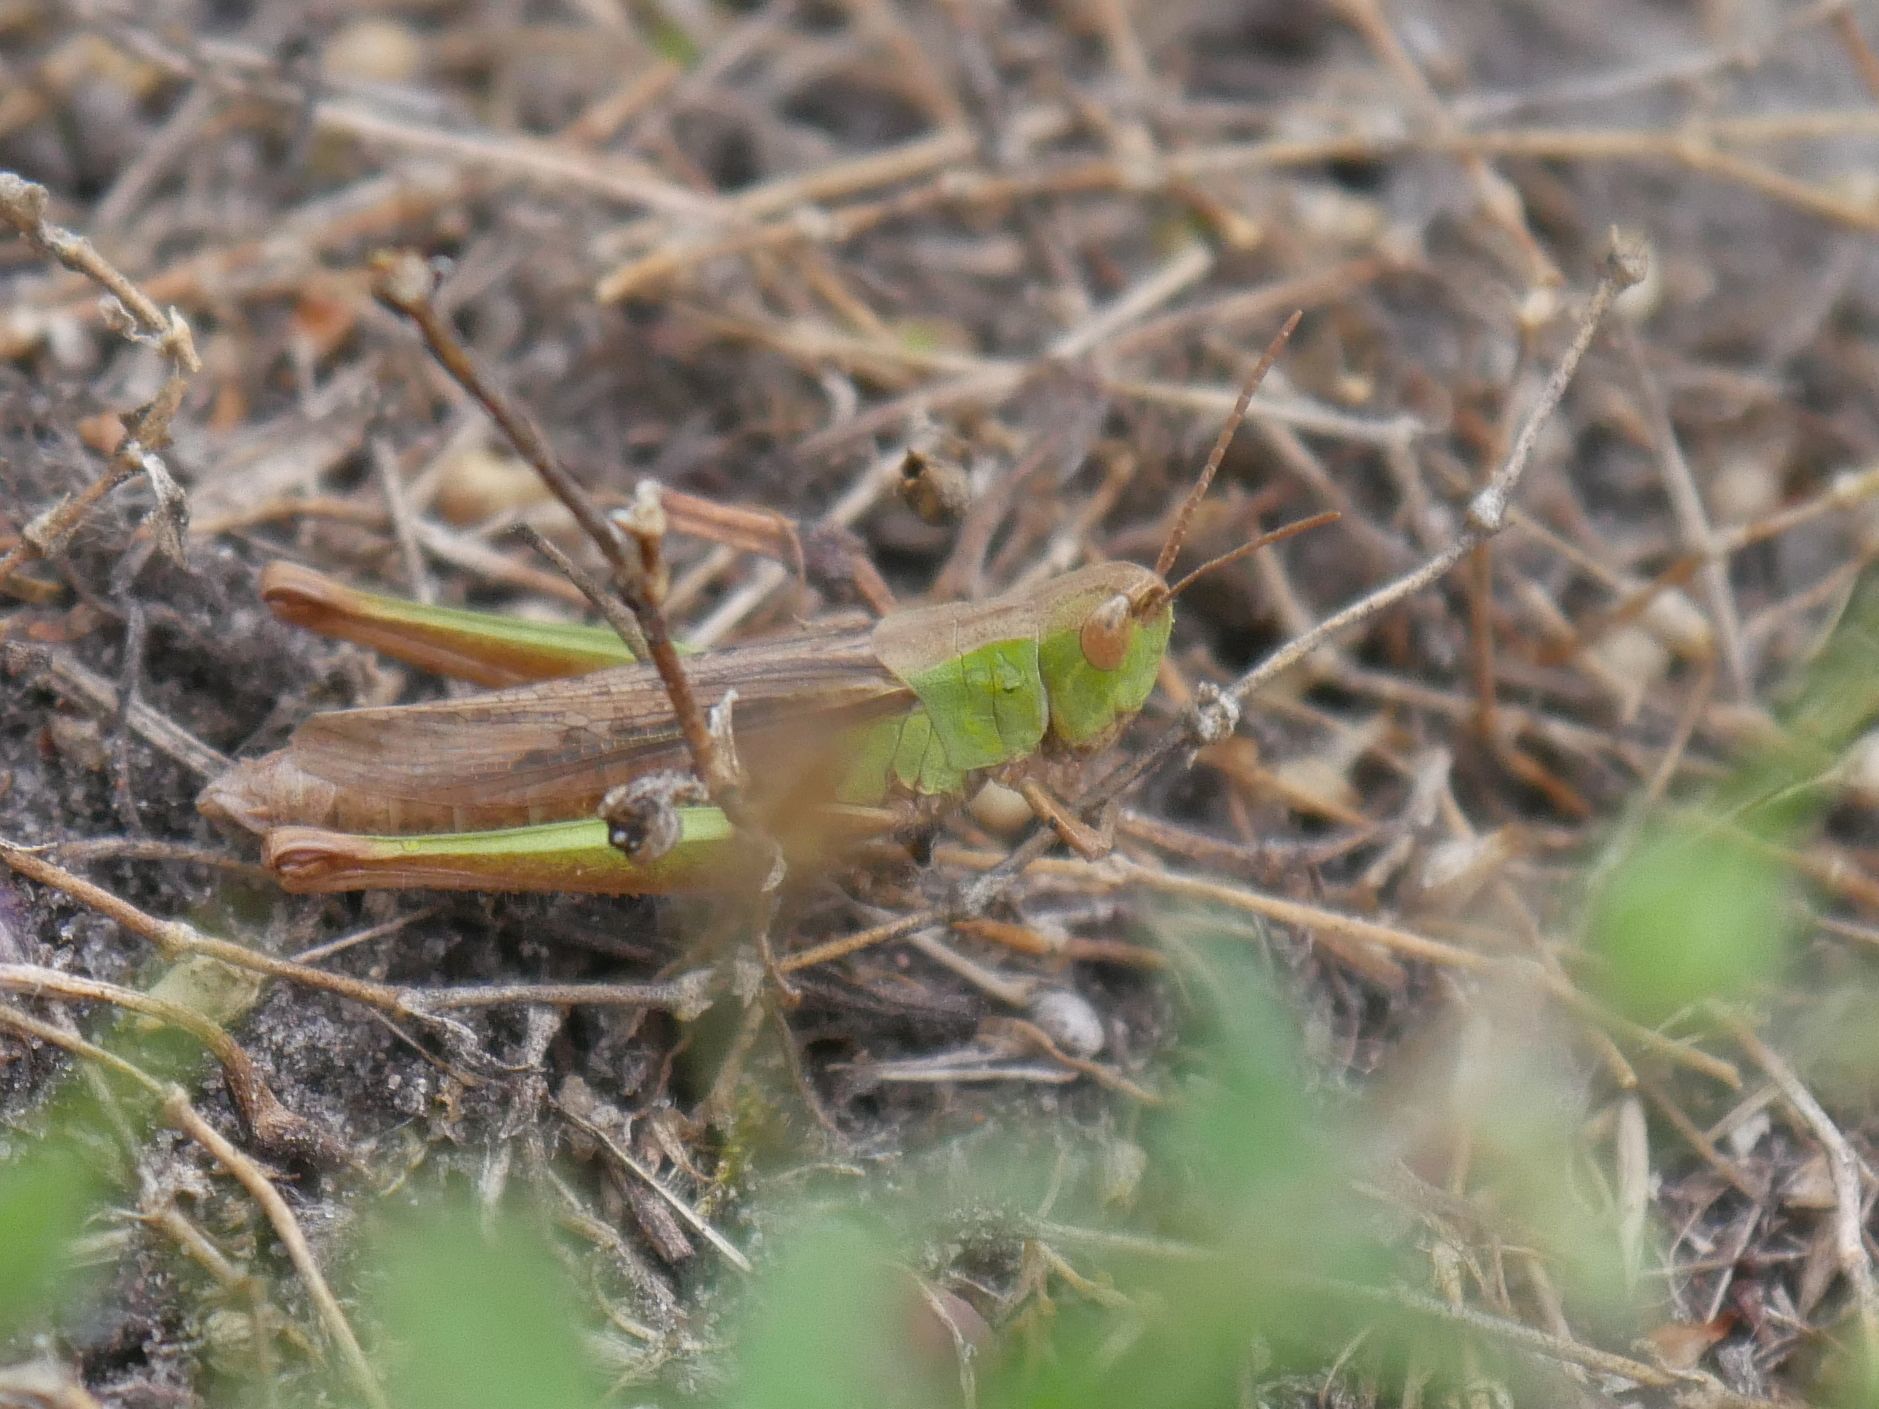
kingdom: Animalia
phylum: Arthropoda
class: Insecta
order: Orthoptera
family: Acrididae
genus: Pseudochorthippus
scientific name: Pseudochorthippus parallelus
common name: Meadow grasshopper
